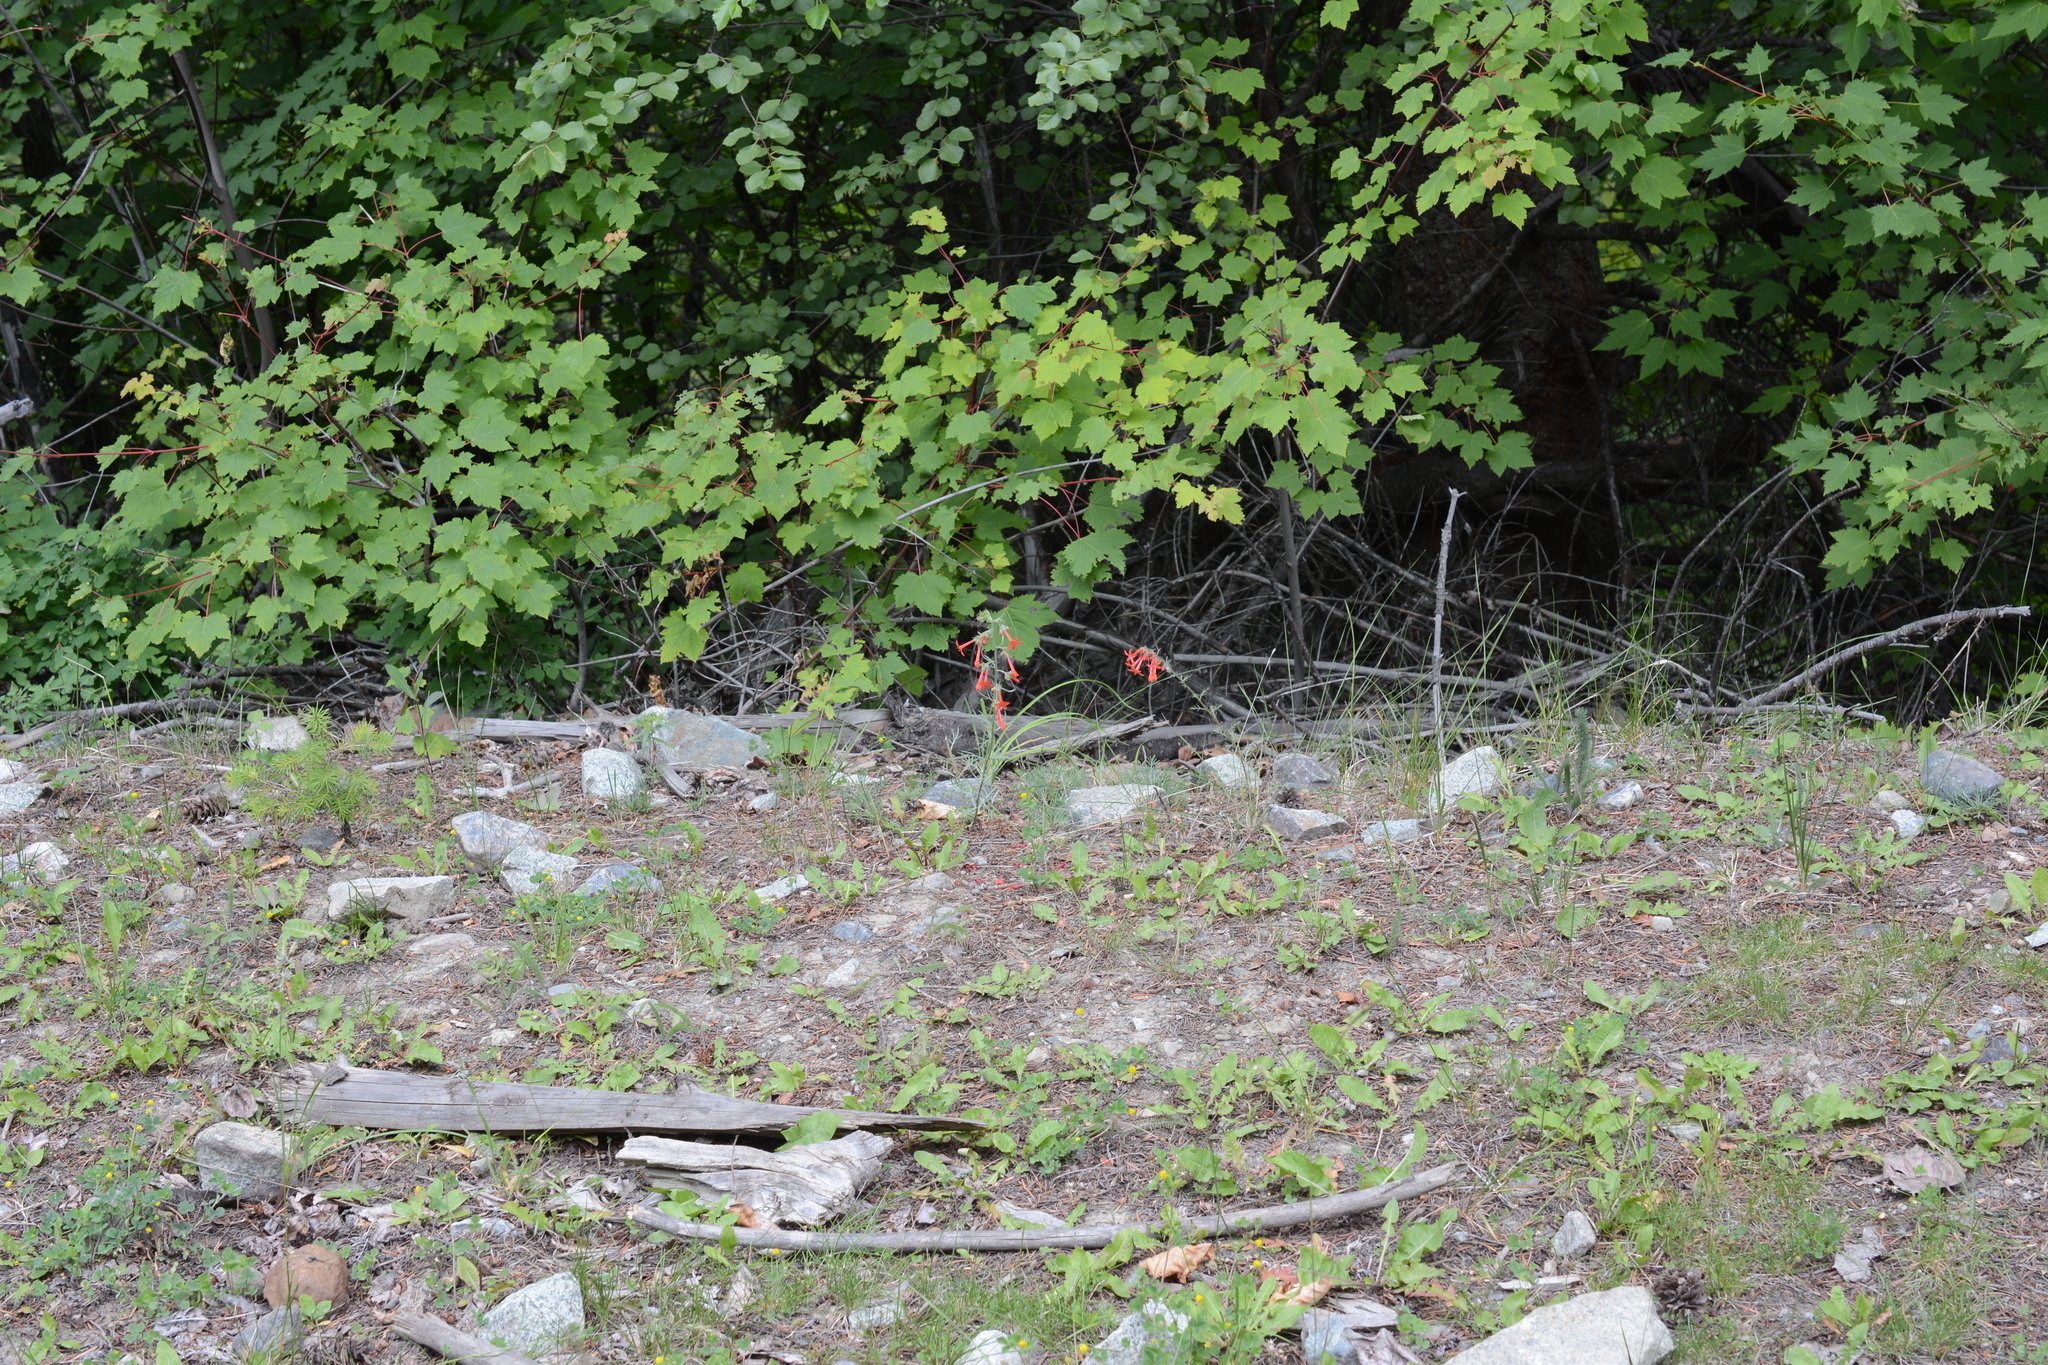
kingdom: Plantae
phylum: Tracheophyta
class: Magnoliopsida
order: Ericales
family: Polemoniaceae
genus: Ipomopsis
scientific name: Ipomopsis aggregata
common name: Scarlet gilia
